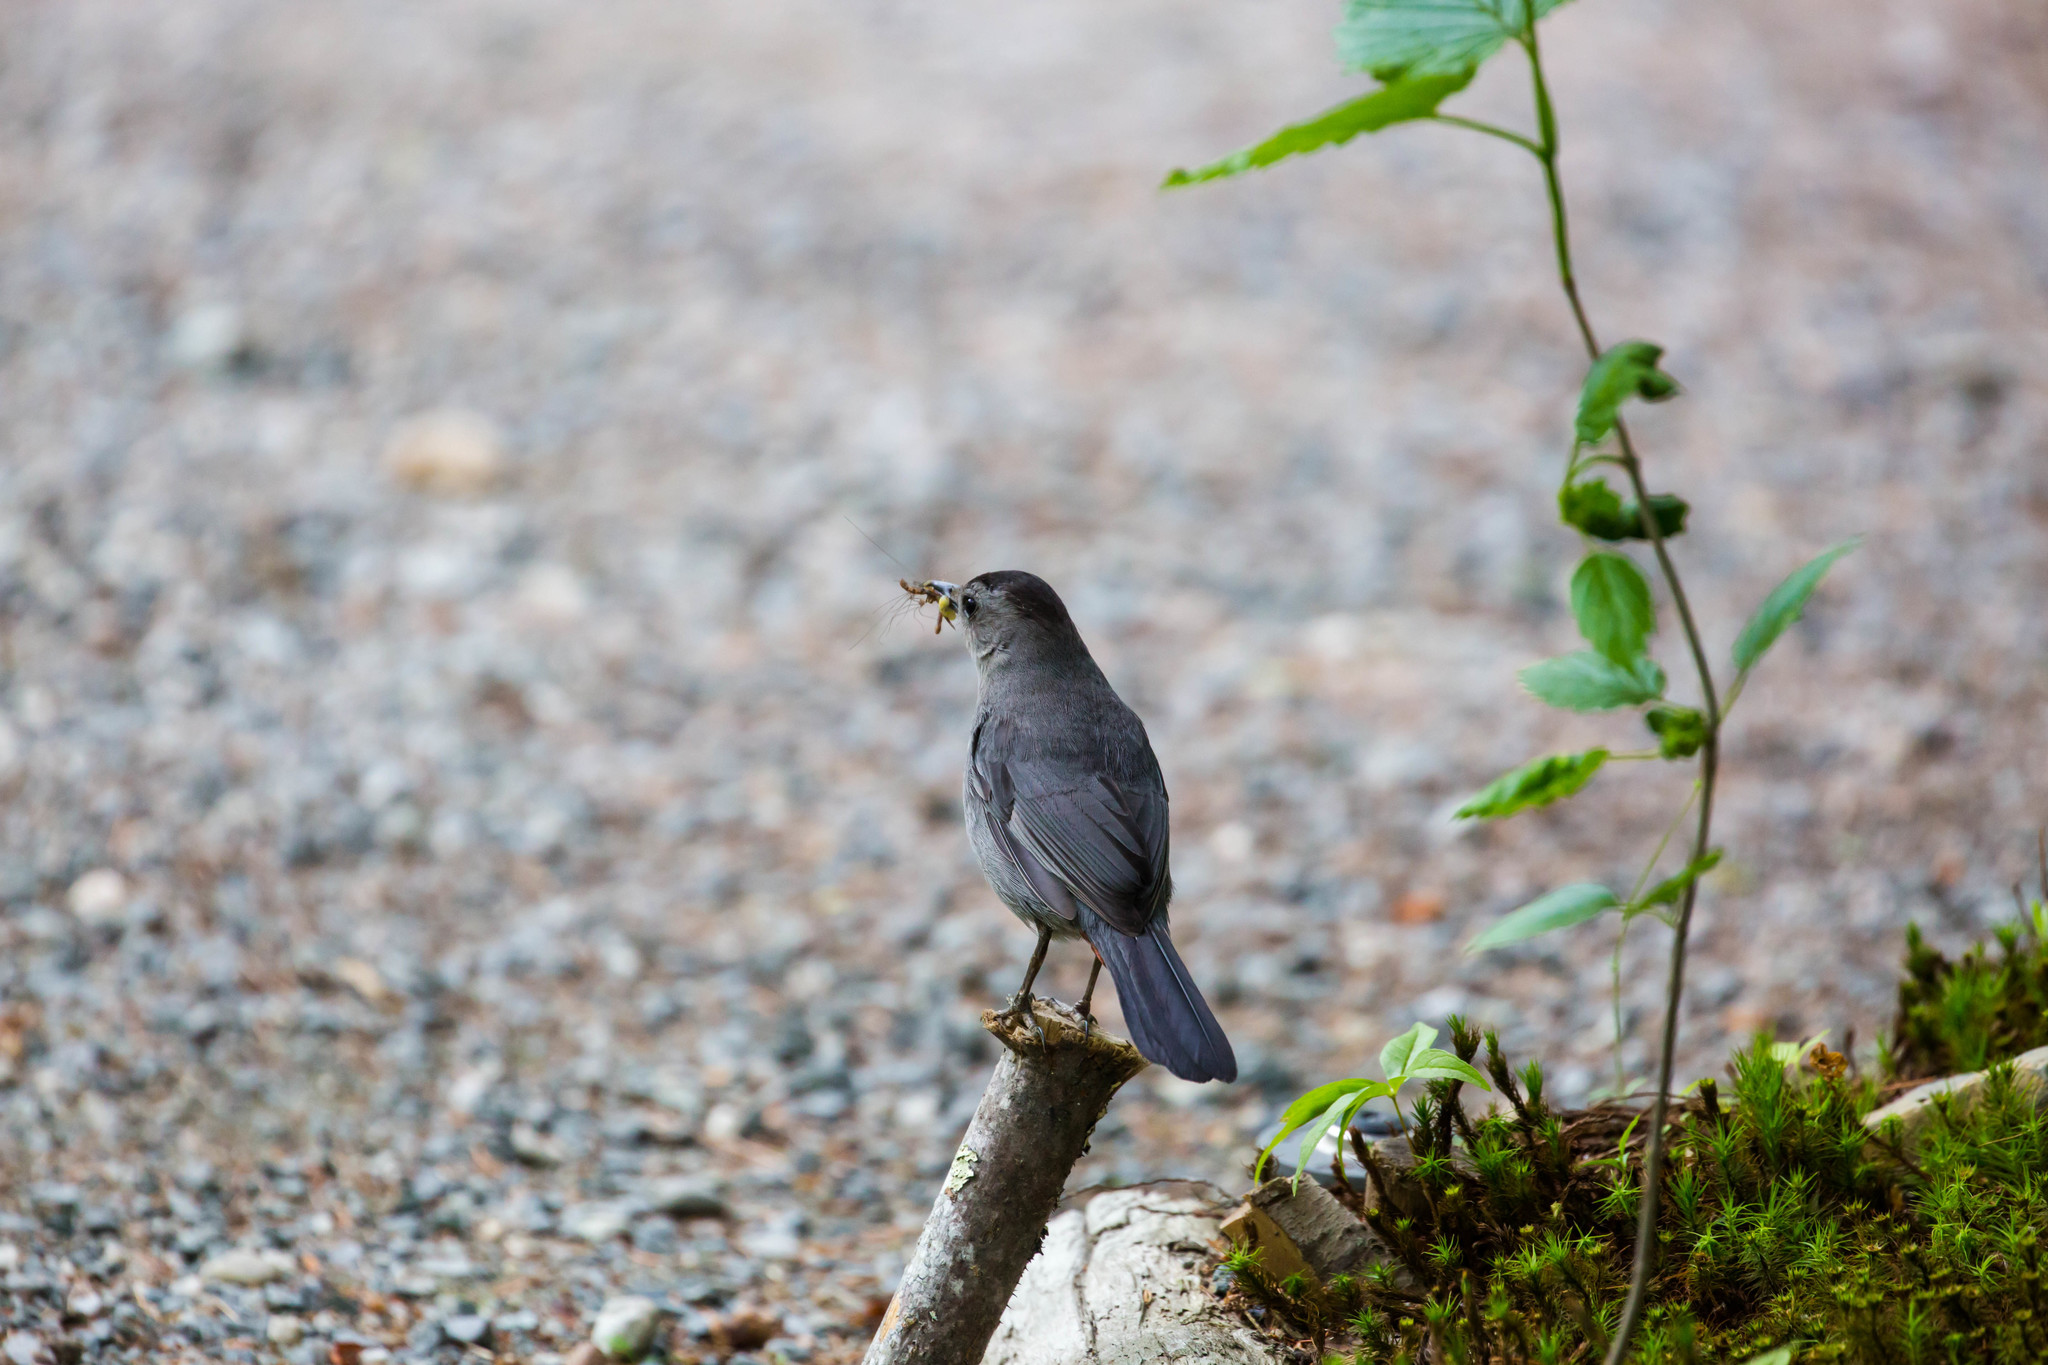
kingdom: Animalia
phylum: Chordata
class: Aves
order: Passeriformes
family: Mimidae
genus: Dumetella
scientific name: Dumetella carolinensis
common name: Gray catbird
